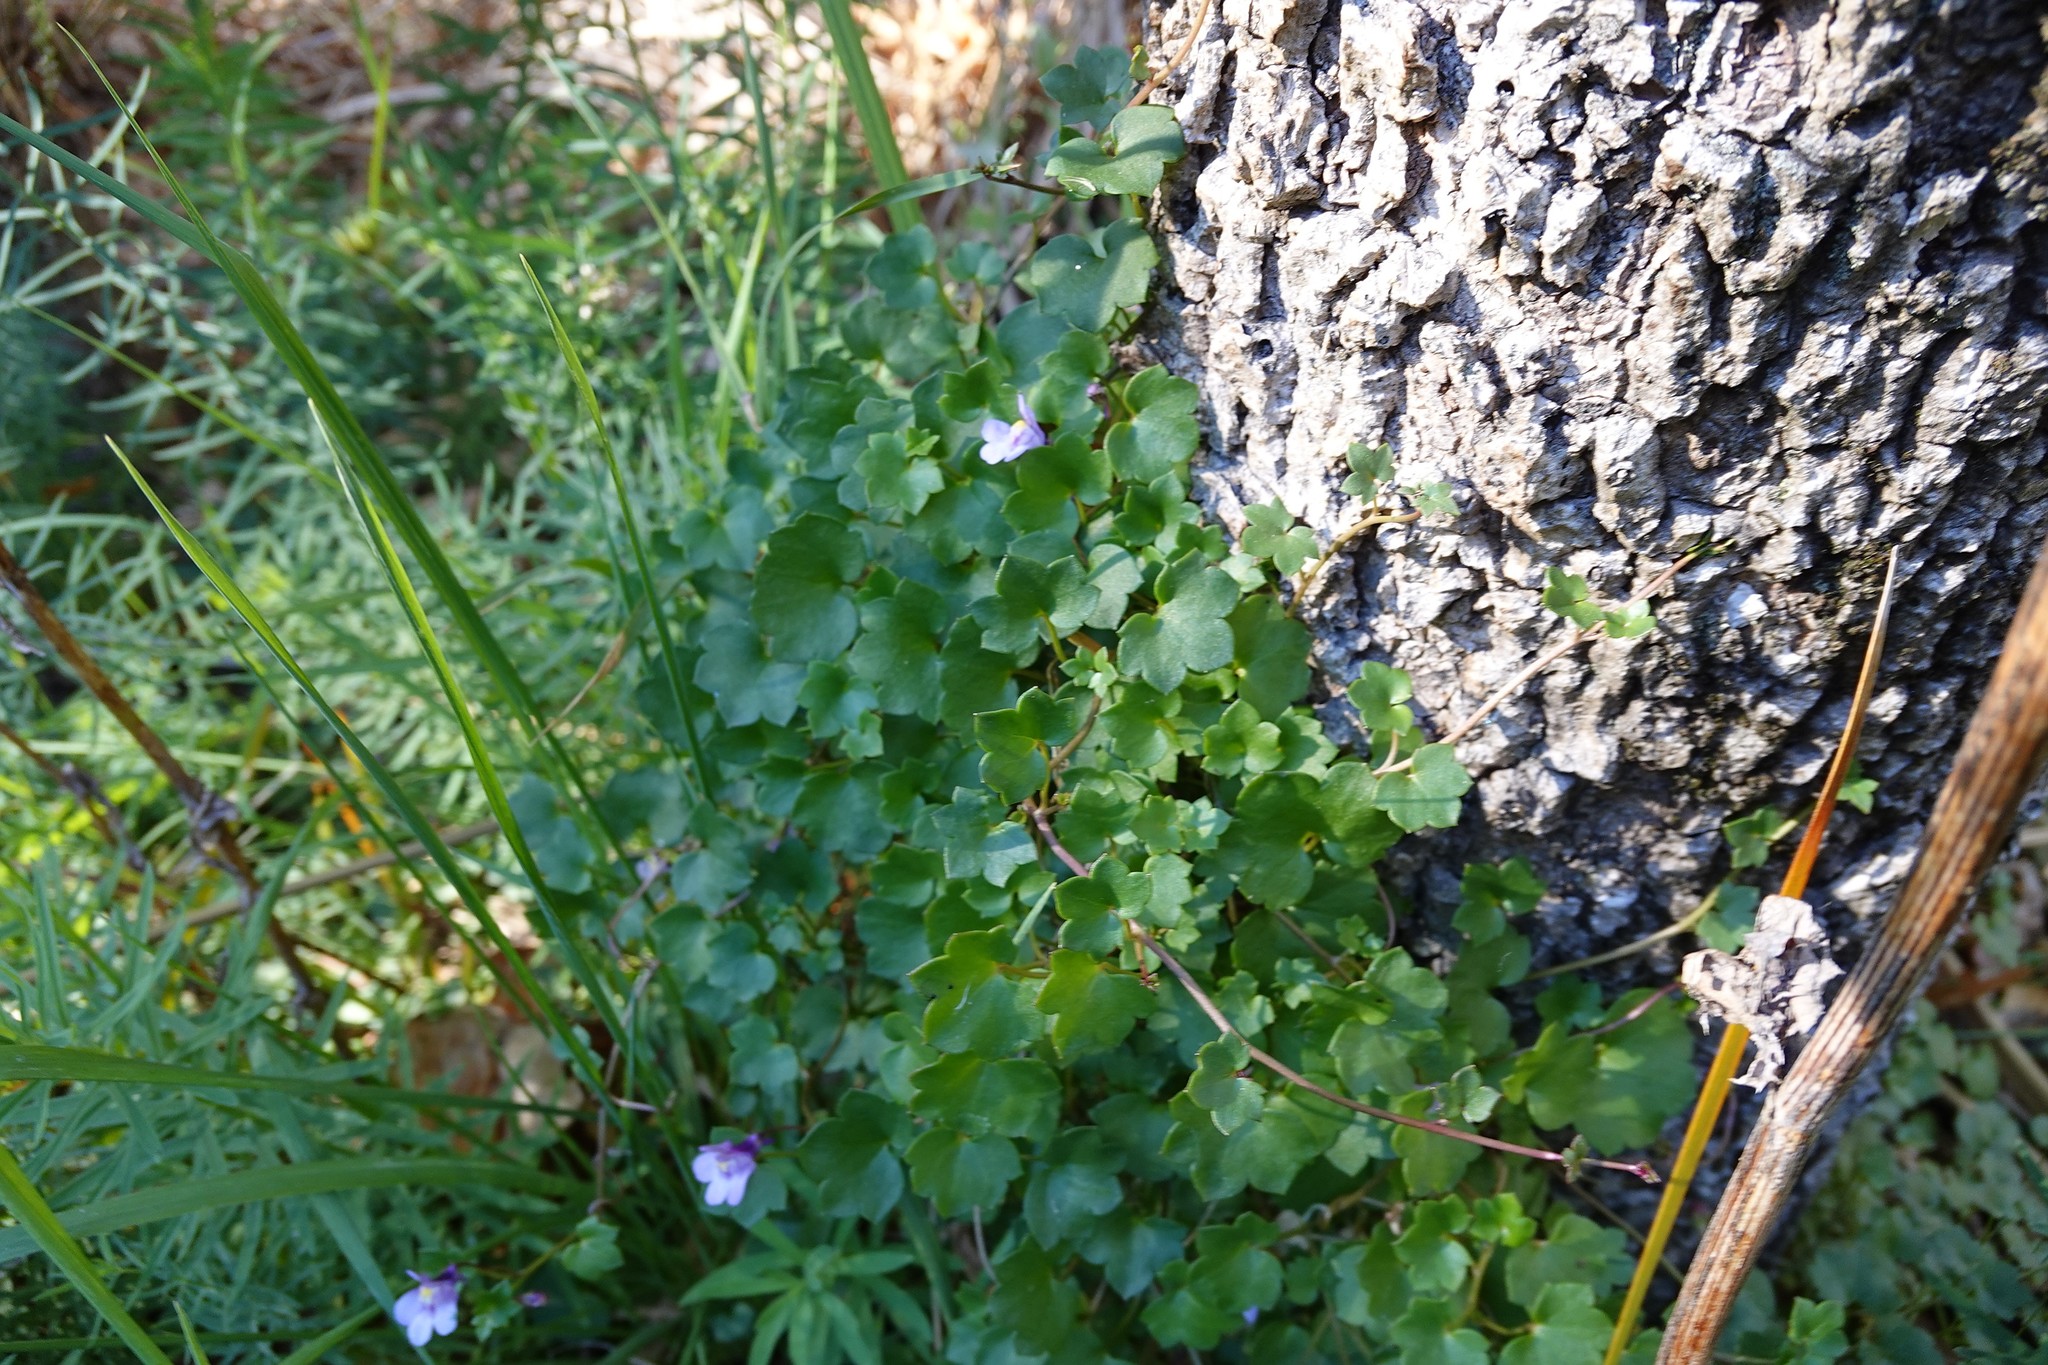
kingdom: Plantae
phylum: Tracheophyta
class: Magnoliopsida
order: Lamiales
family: Plantaginaceae
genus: Cymbalaria
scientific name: Cymbalaria muralis
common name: Ivy-leaved toadflax
